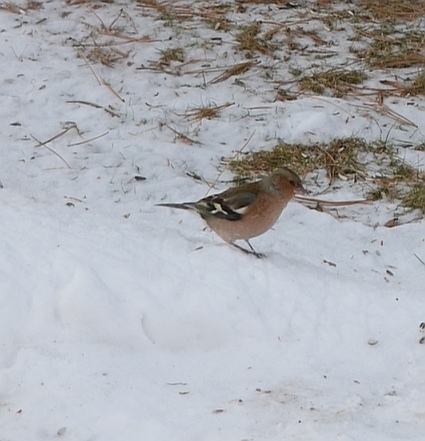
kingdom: Animalia
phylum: Chordata
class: Aves
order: Passeriformes
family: Fringillidae
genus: Fringilla
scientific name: Fringilla coelebs
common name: Common chaffinch
